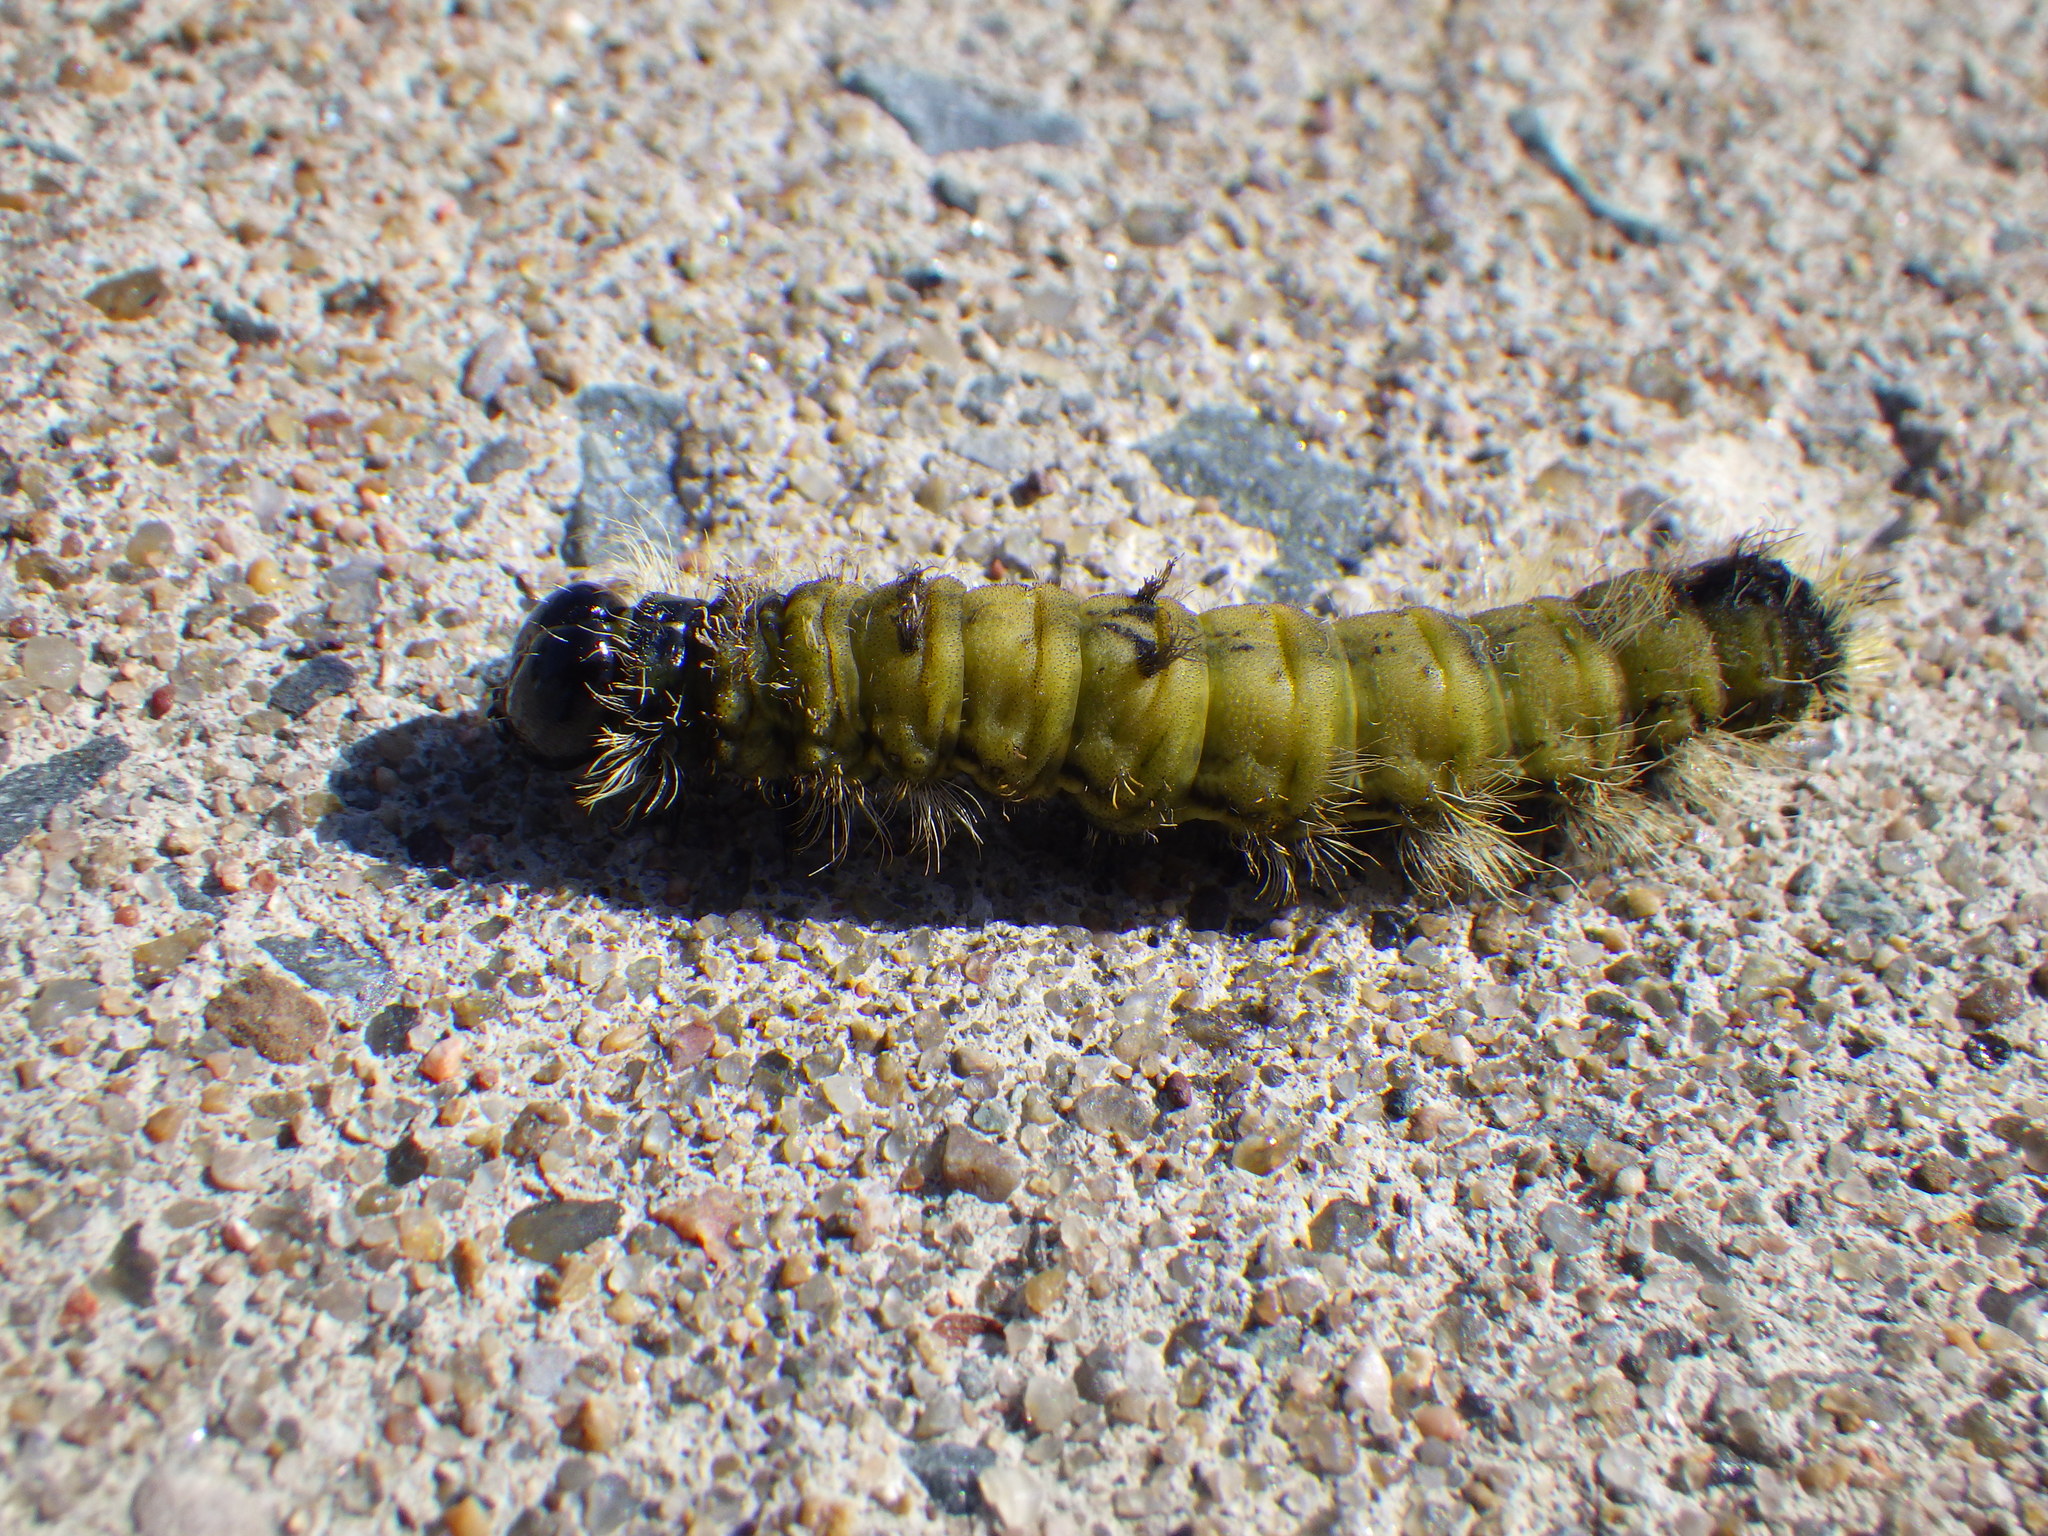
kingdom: Animalia
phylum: Arthropoda
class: Insecta
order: Lepidoptera
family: Noctuidae
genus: Acronicta
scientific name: Acronicta americana
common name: American dagger
